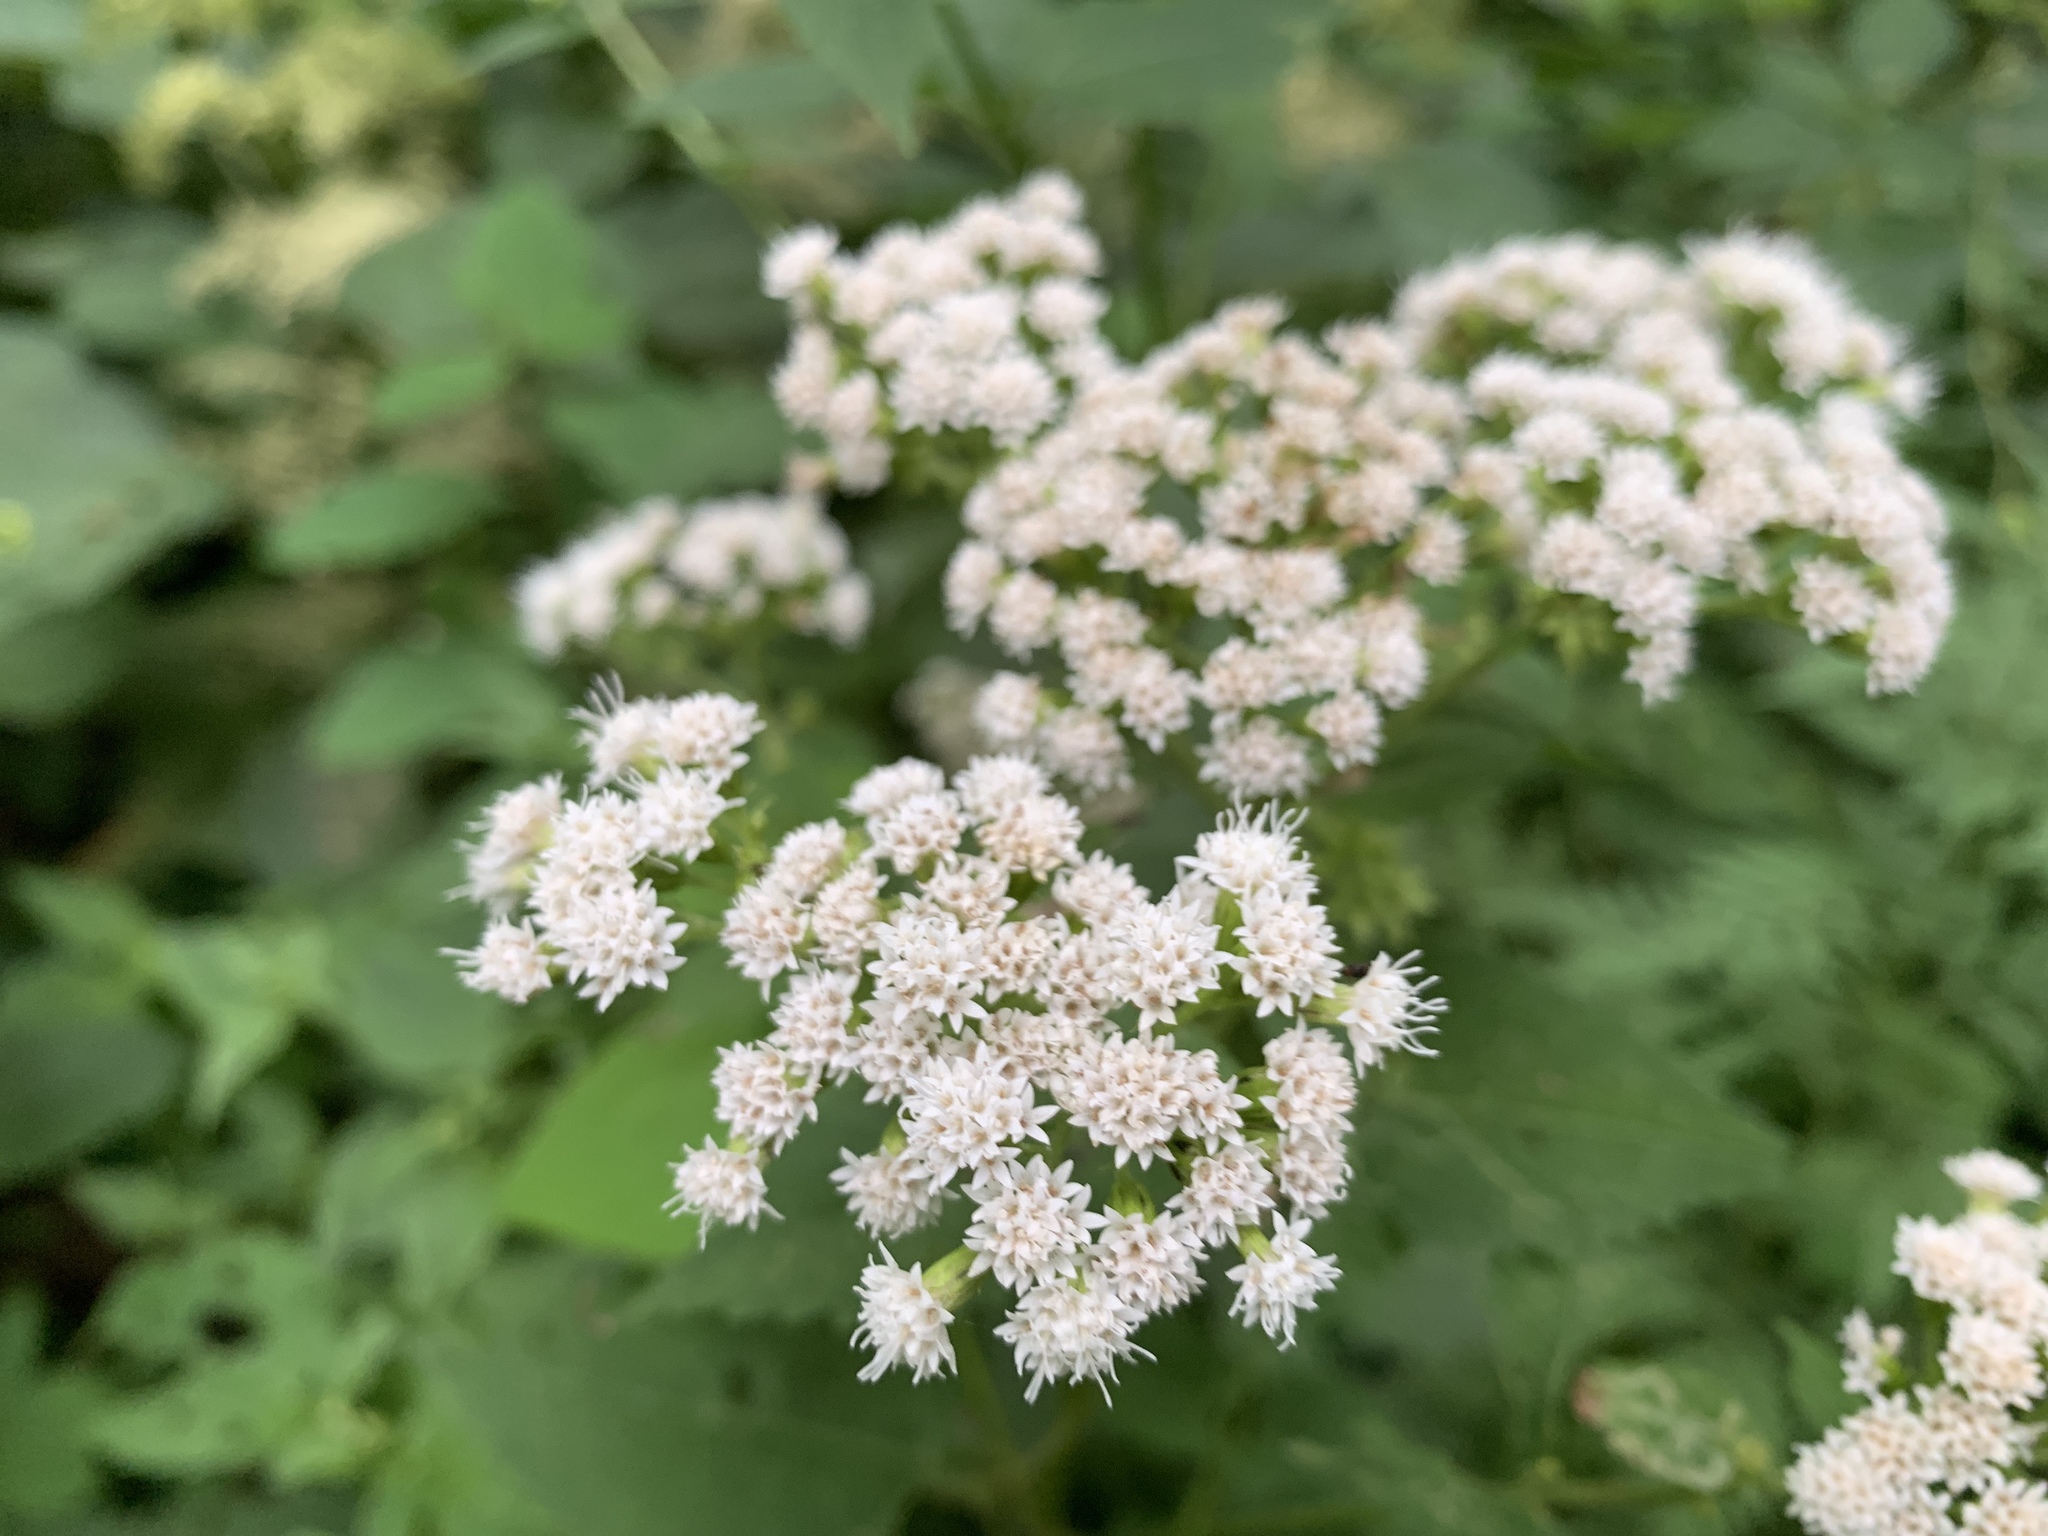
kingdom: Plantae
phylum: Tracheophyta
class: Magnoliopsida
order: Asterales
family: Asteraceae
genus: Ageratina
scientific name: Ageratina altissima
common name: White snakeroot
